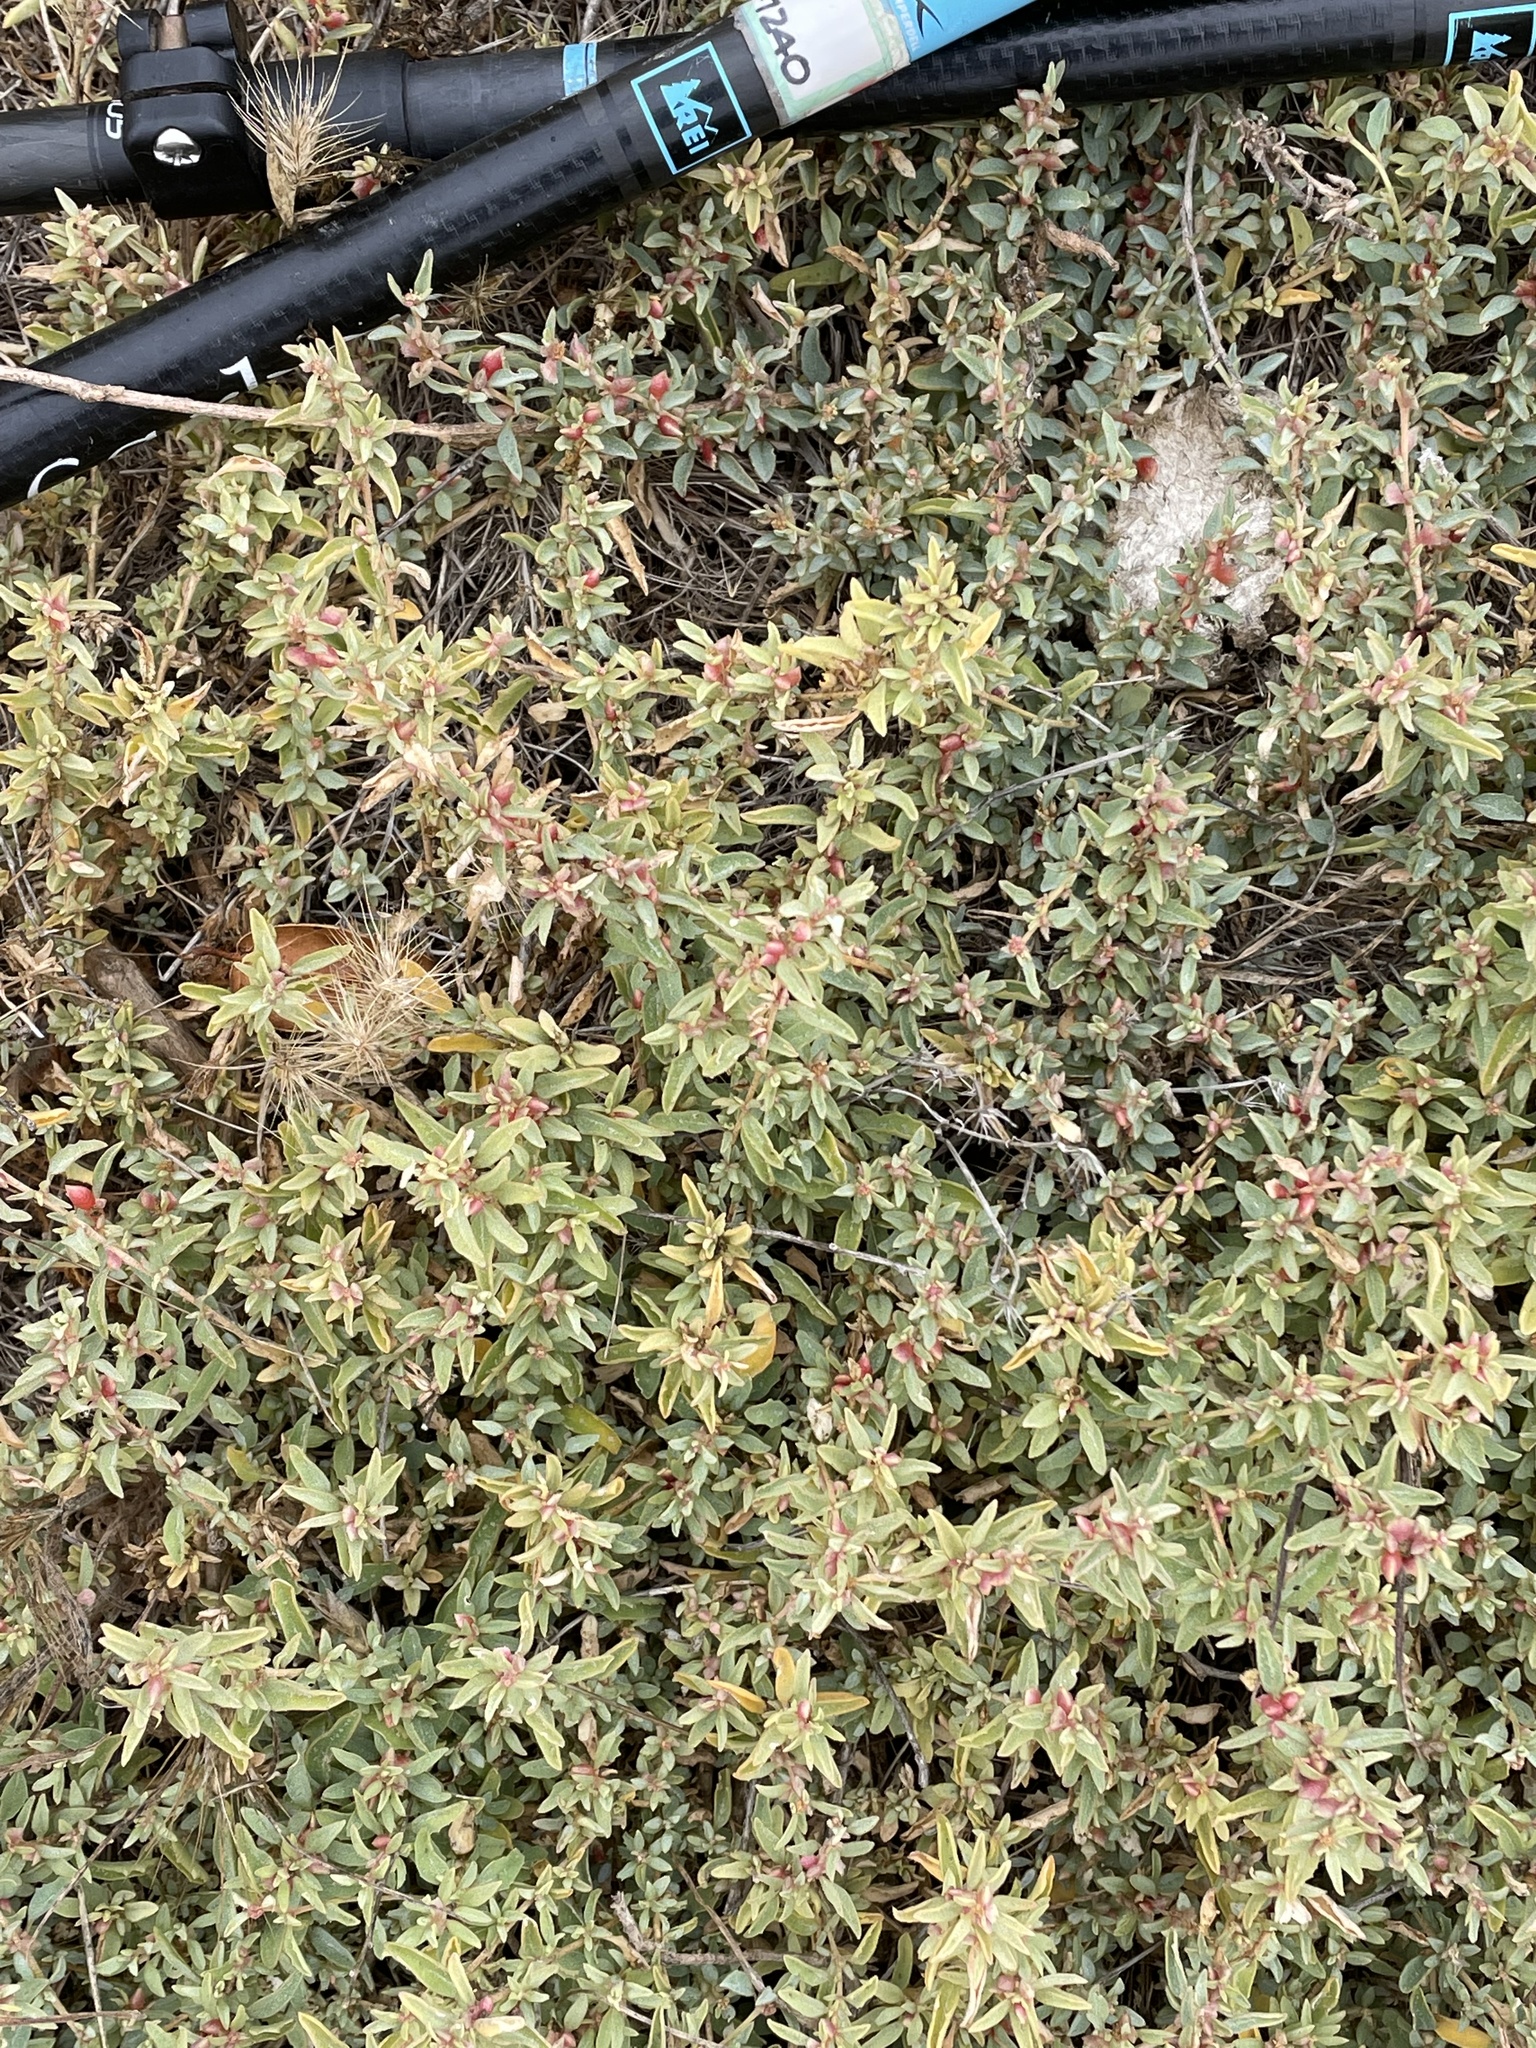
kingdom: Plantae
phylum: Tracheophyta
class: Magnoliopsida
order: Caryophyllales
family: Amaranthaceae
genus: Atriplex
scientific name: Atriplex semibaccata
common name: Australian saltbush
